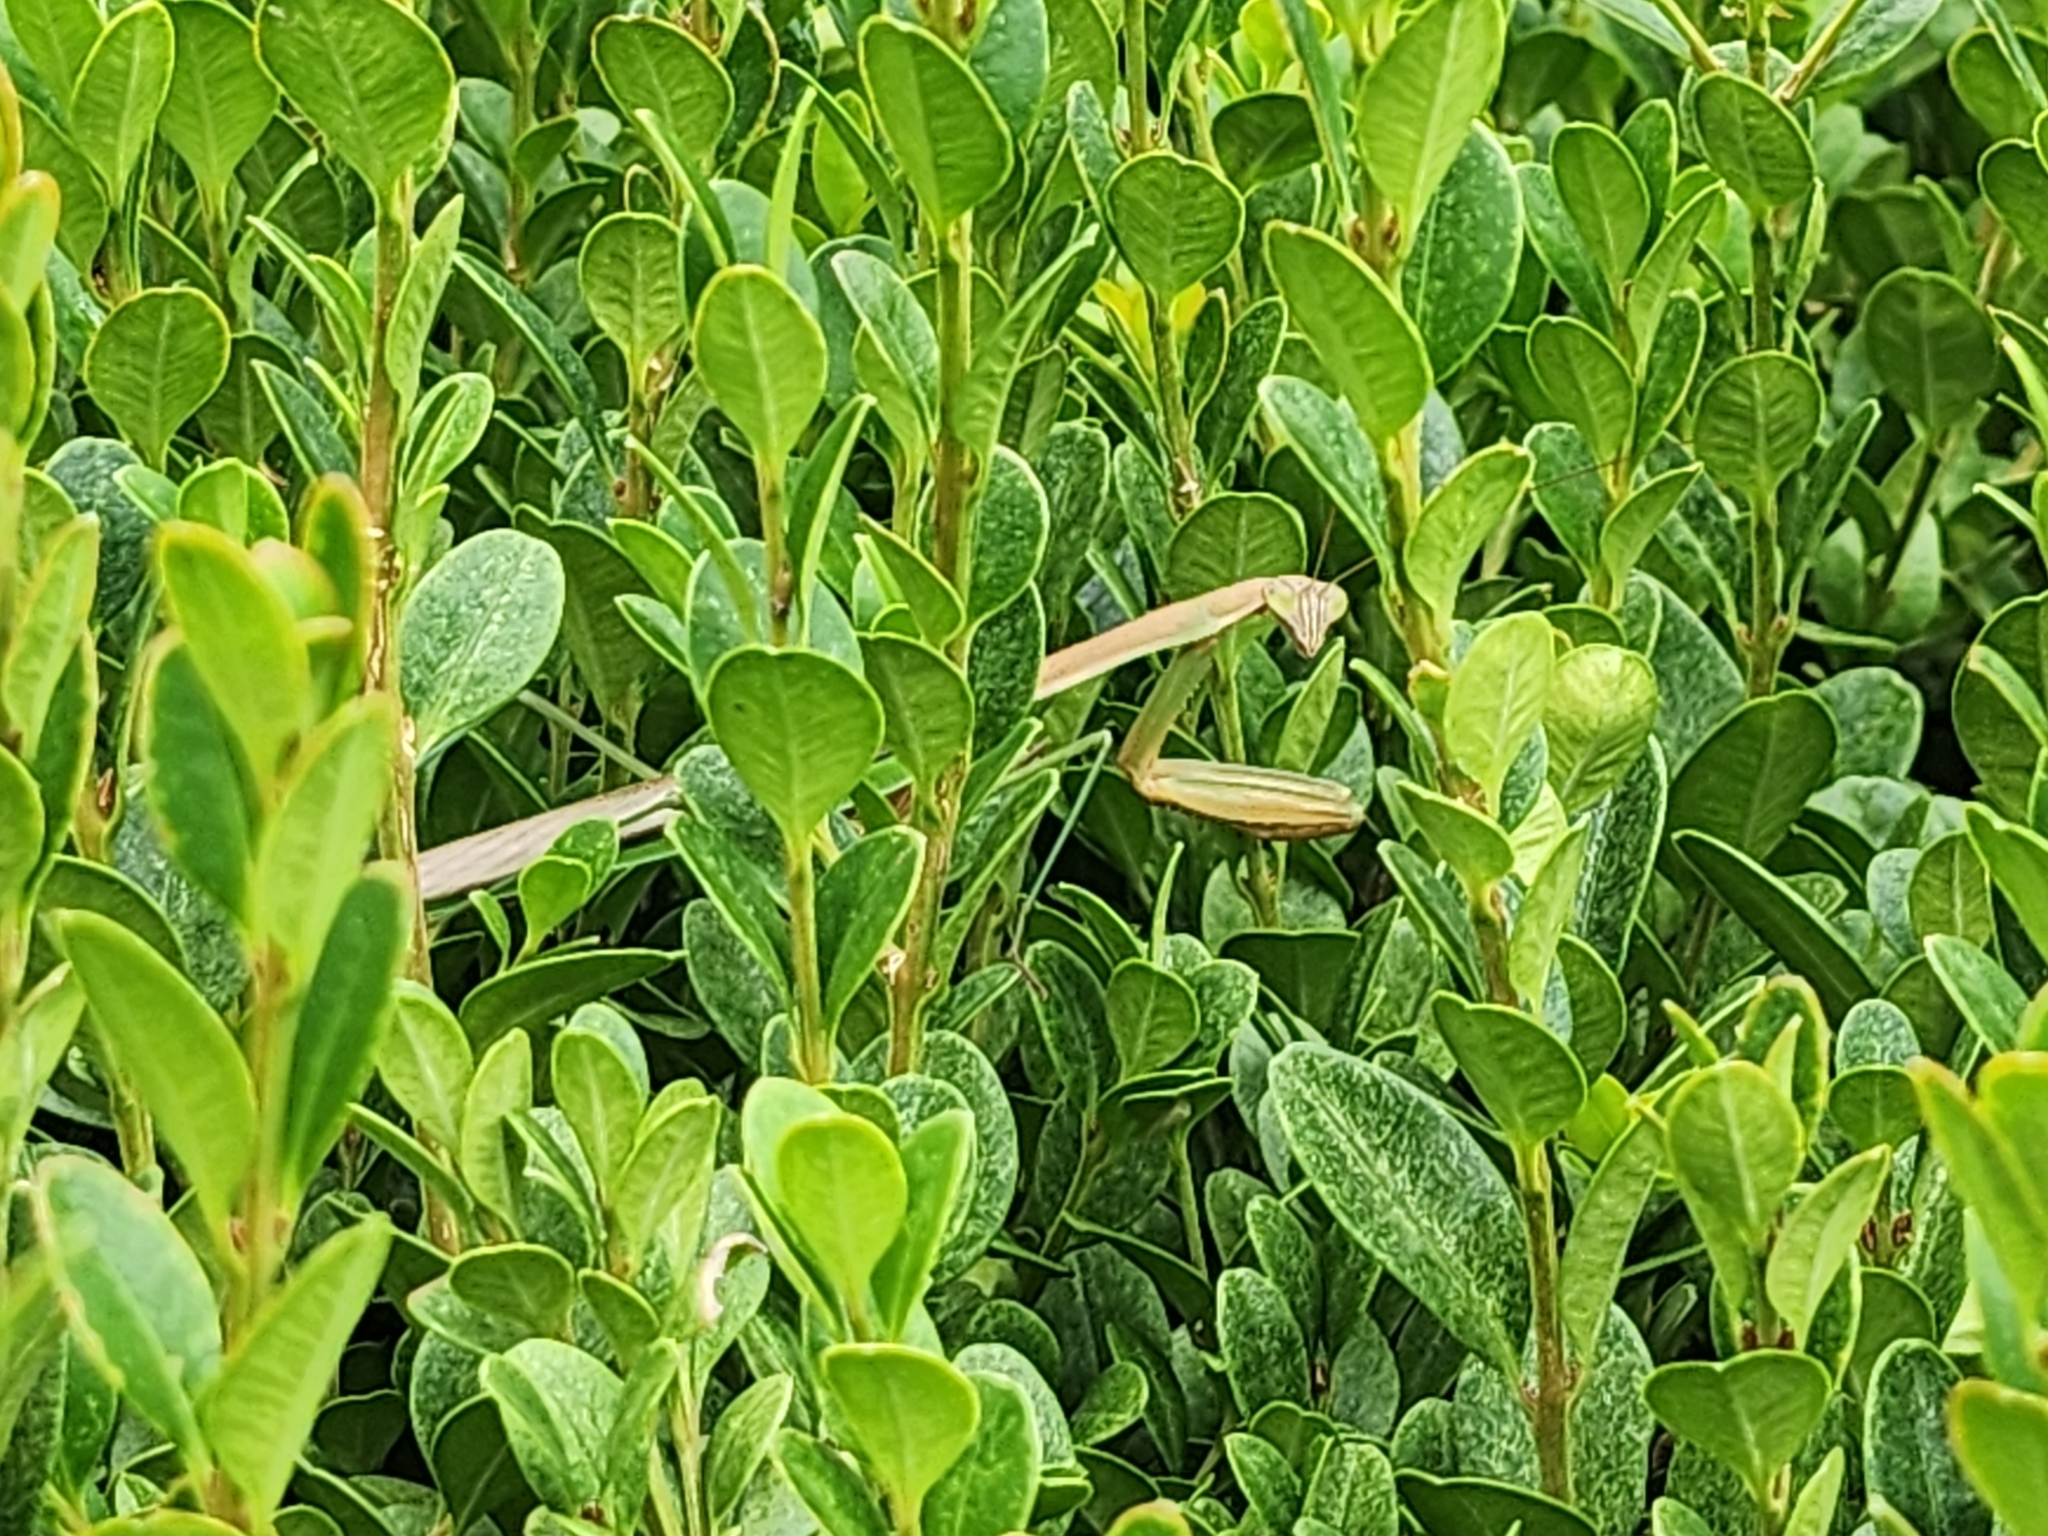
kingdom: Animalia
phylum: Arthropoda
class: Insecta
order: Mantodea
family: Mantidae
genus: Tenodera
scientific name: Tenodera sinensis
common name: Chinese mantis
